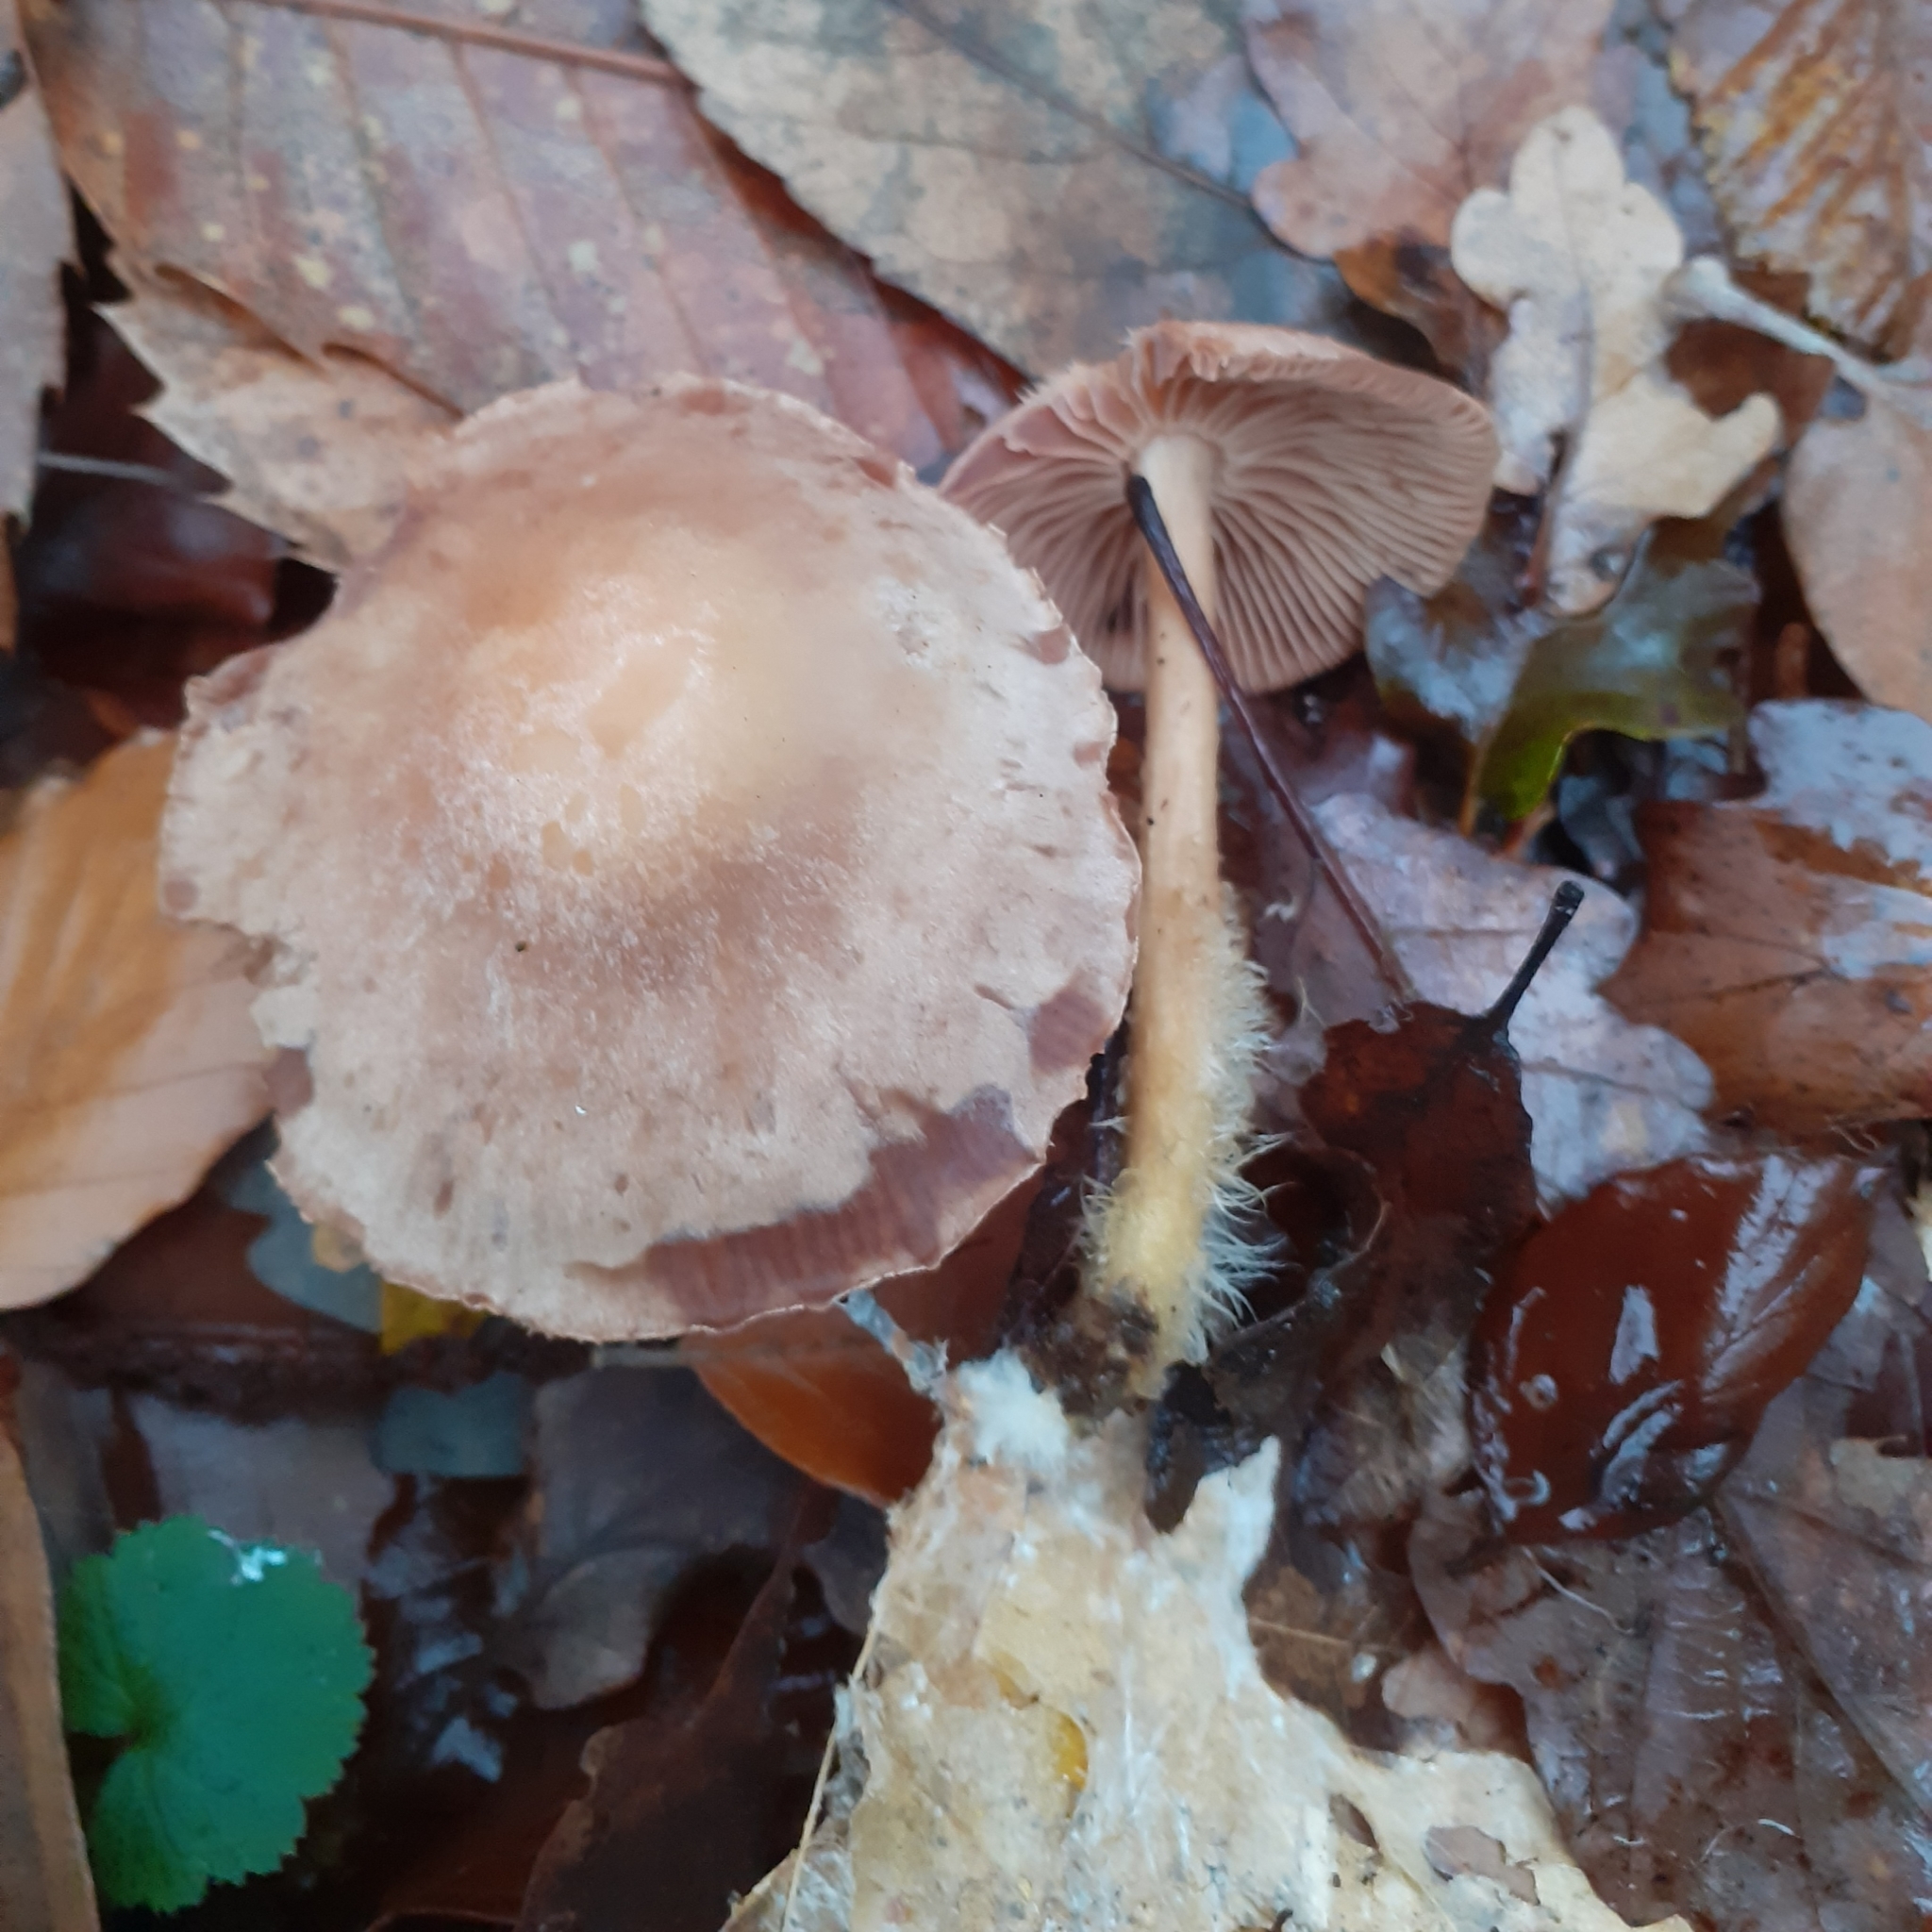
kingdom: Fungi
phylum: Basidiomycota
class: Agaricomycetes
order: Agaricales
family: Omphalotaceae
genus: Collybiopsis
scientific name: Collybiopsis peronata
